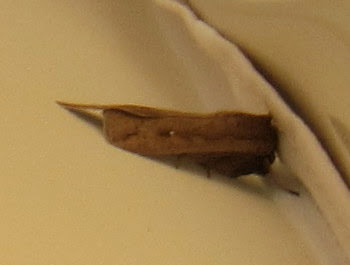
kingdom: Animalia
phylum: Arthropoda
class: Insecta
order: Lepidoptera
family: Noctuidae
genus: Mythimna
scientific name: Mythimna unipuncta
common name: White-speck
